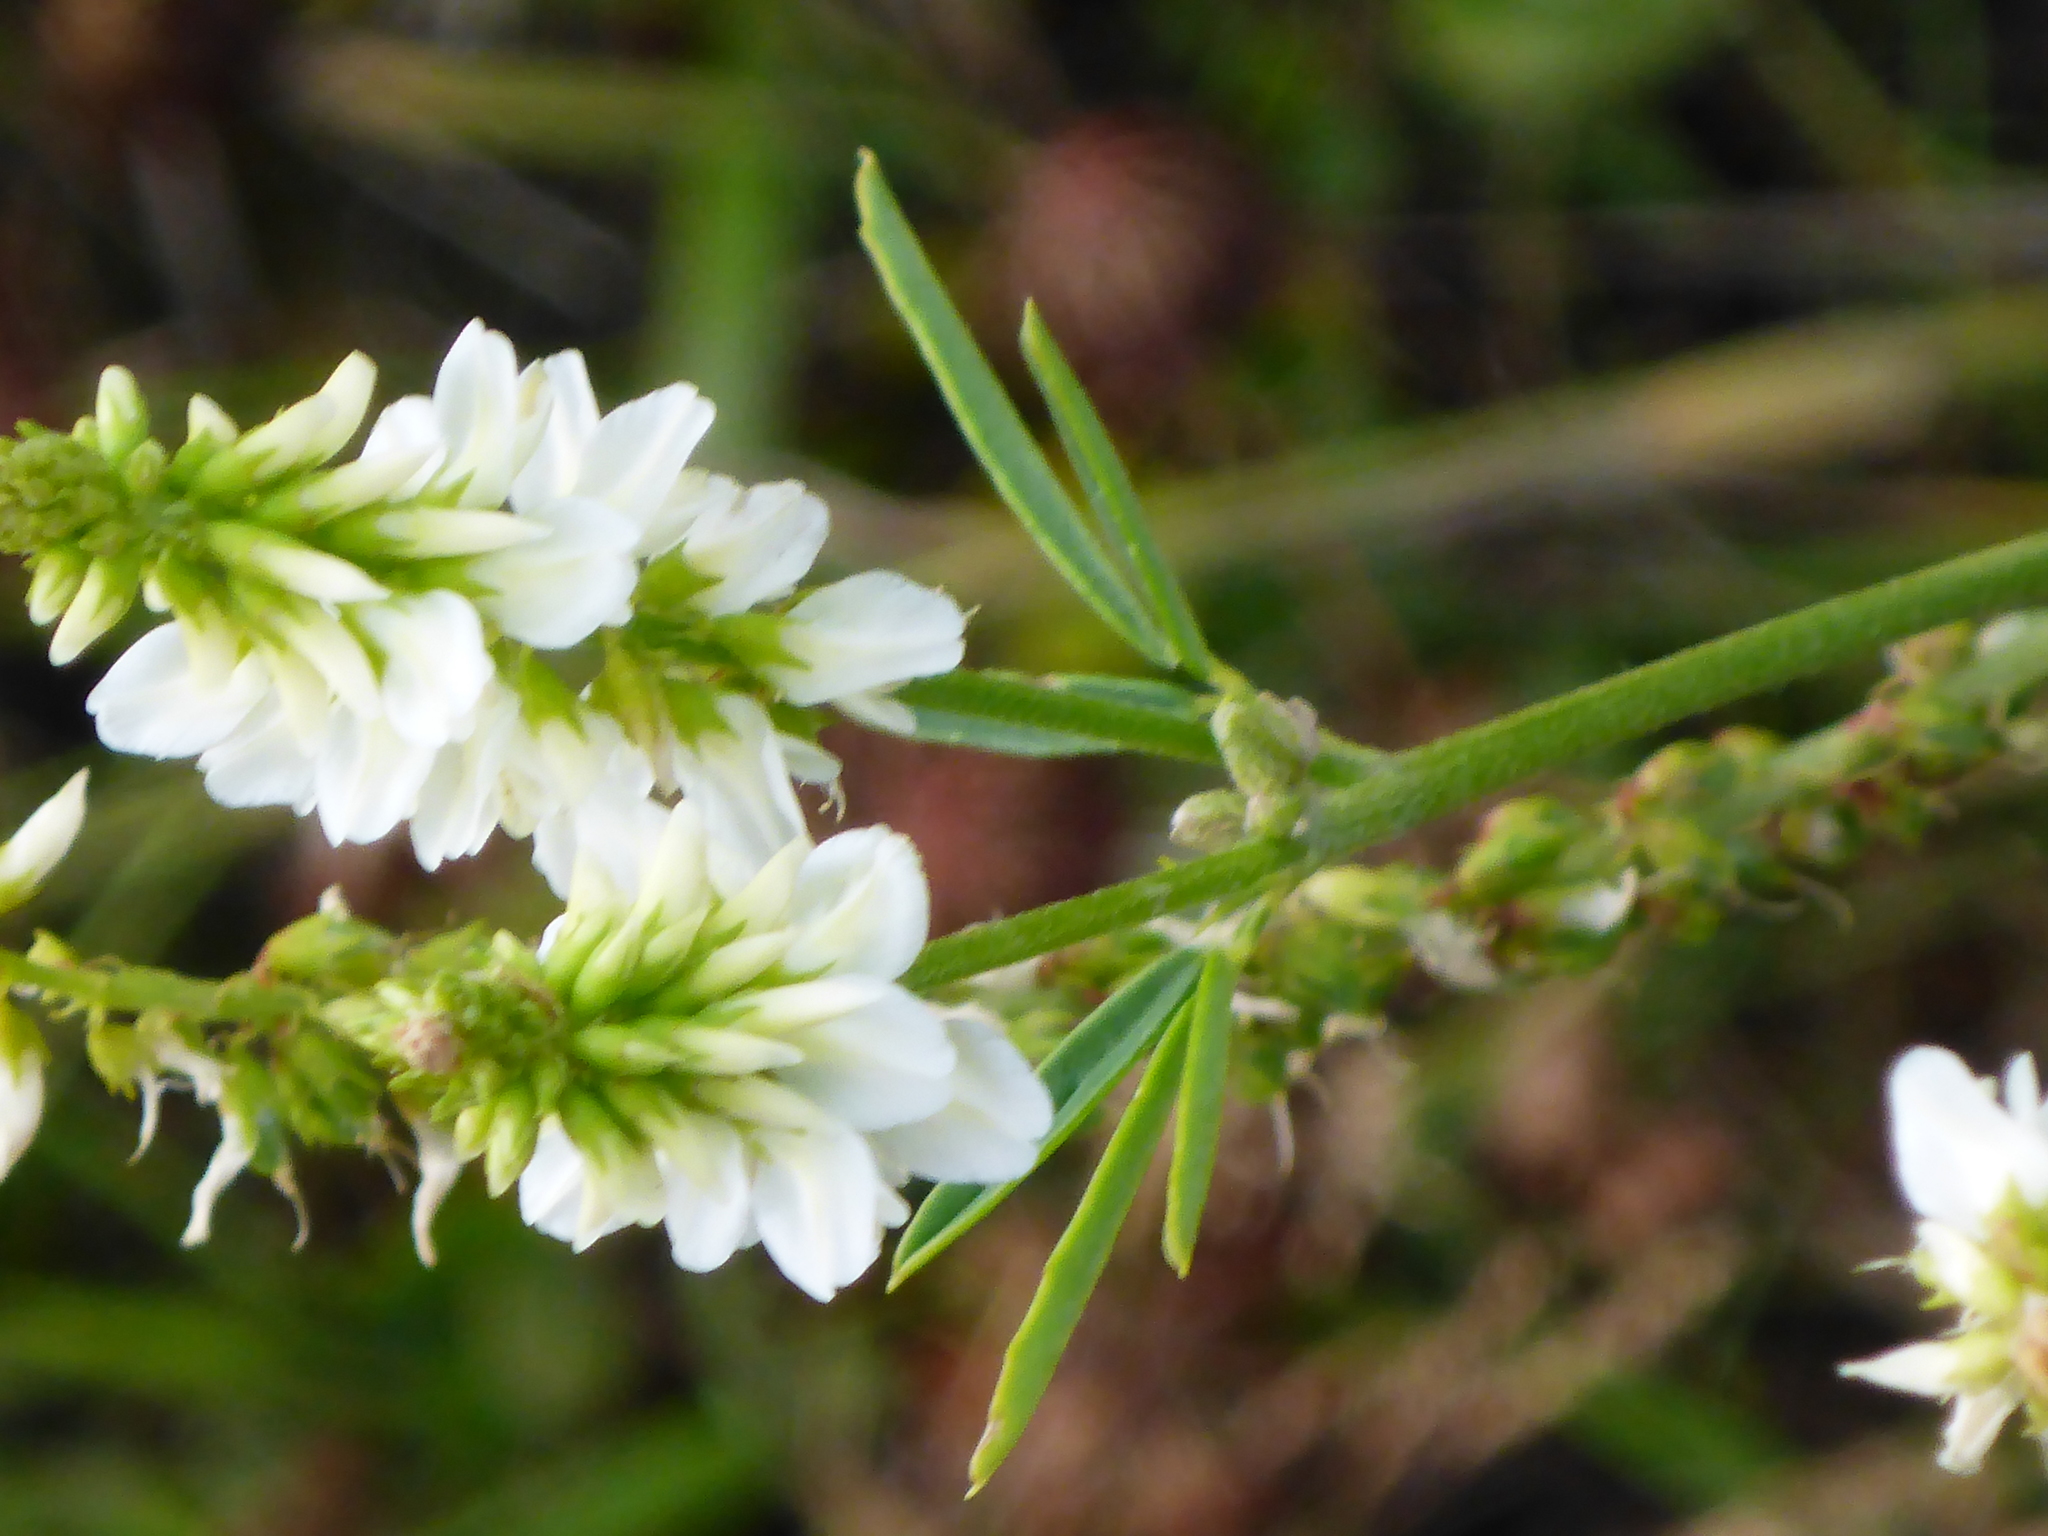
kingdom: Plantae
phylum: Tracheophyta
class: Magnoliopsida
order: Fabales
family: Fabaceae
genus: Melilotus
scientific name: Melilotus albus
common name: White melilot
